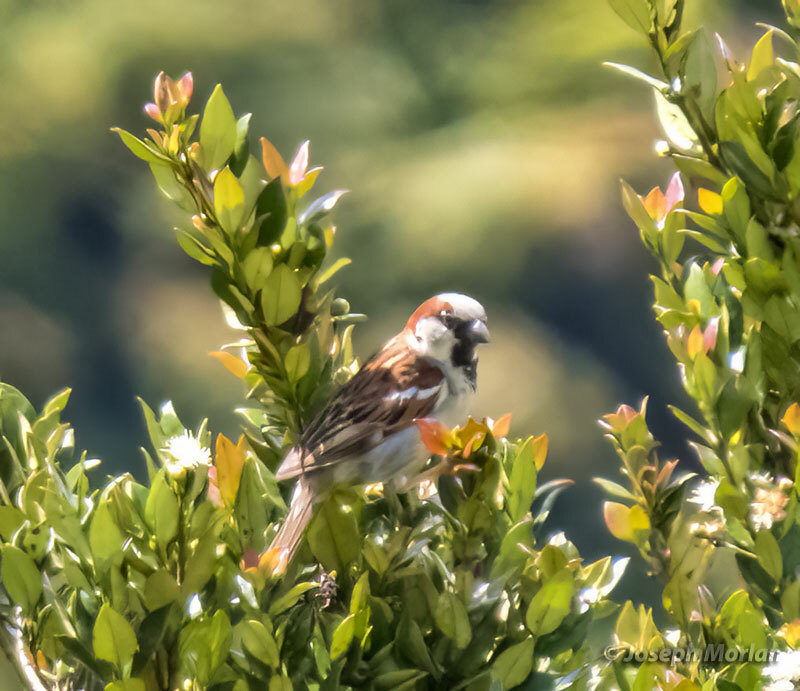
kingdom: Animalia
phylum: Chordata
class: Aves
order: Passeriformes
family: Passeridae
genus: Passer
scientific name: Passer domesticus
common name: House sparrow
